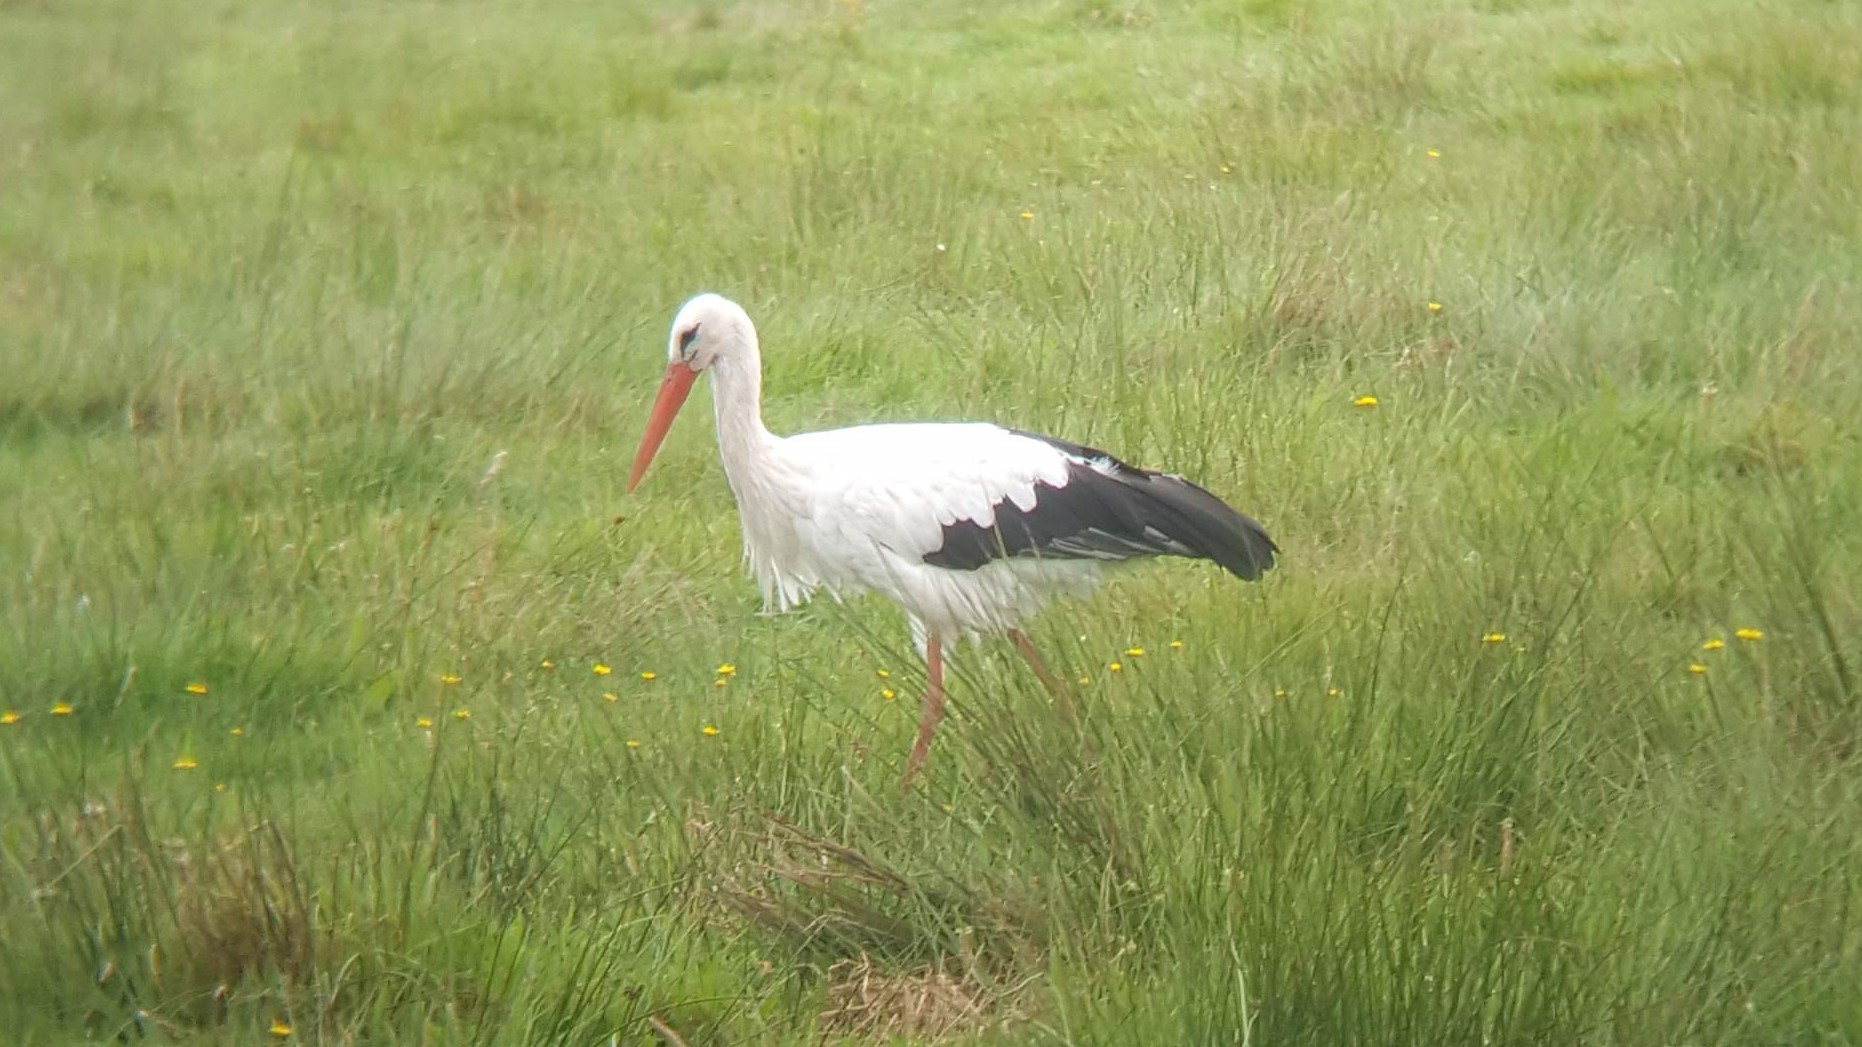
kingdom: Animalia
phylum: Chordata
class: Aves
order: Ciconiiformes
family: Ciconiidae
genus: Ciconia
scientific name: Ciconia ciconia
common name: White stork
